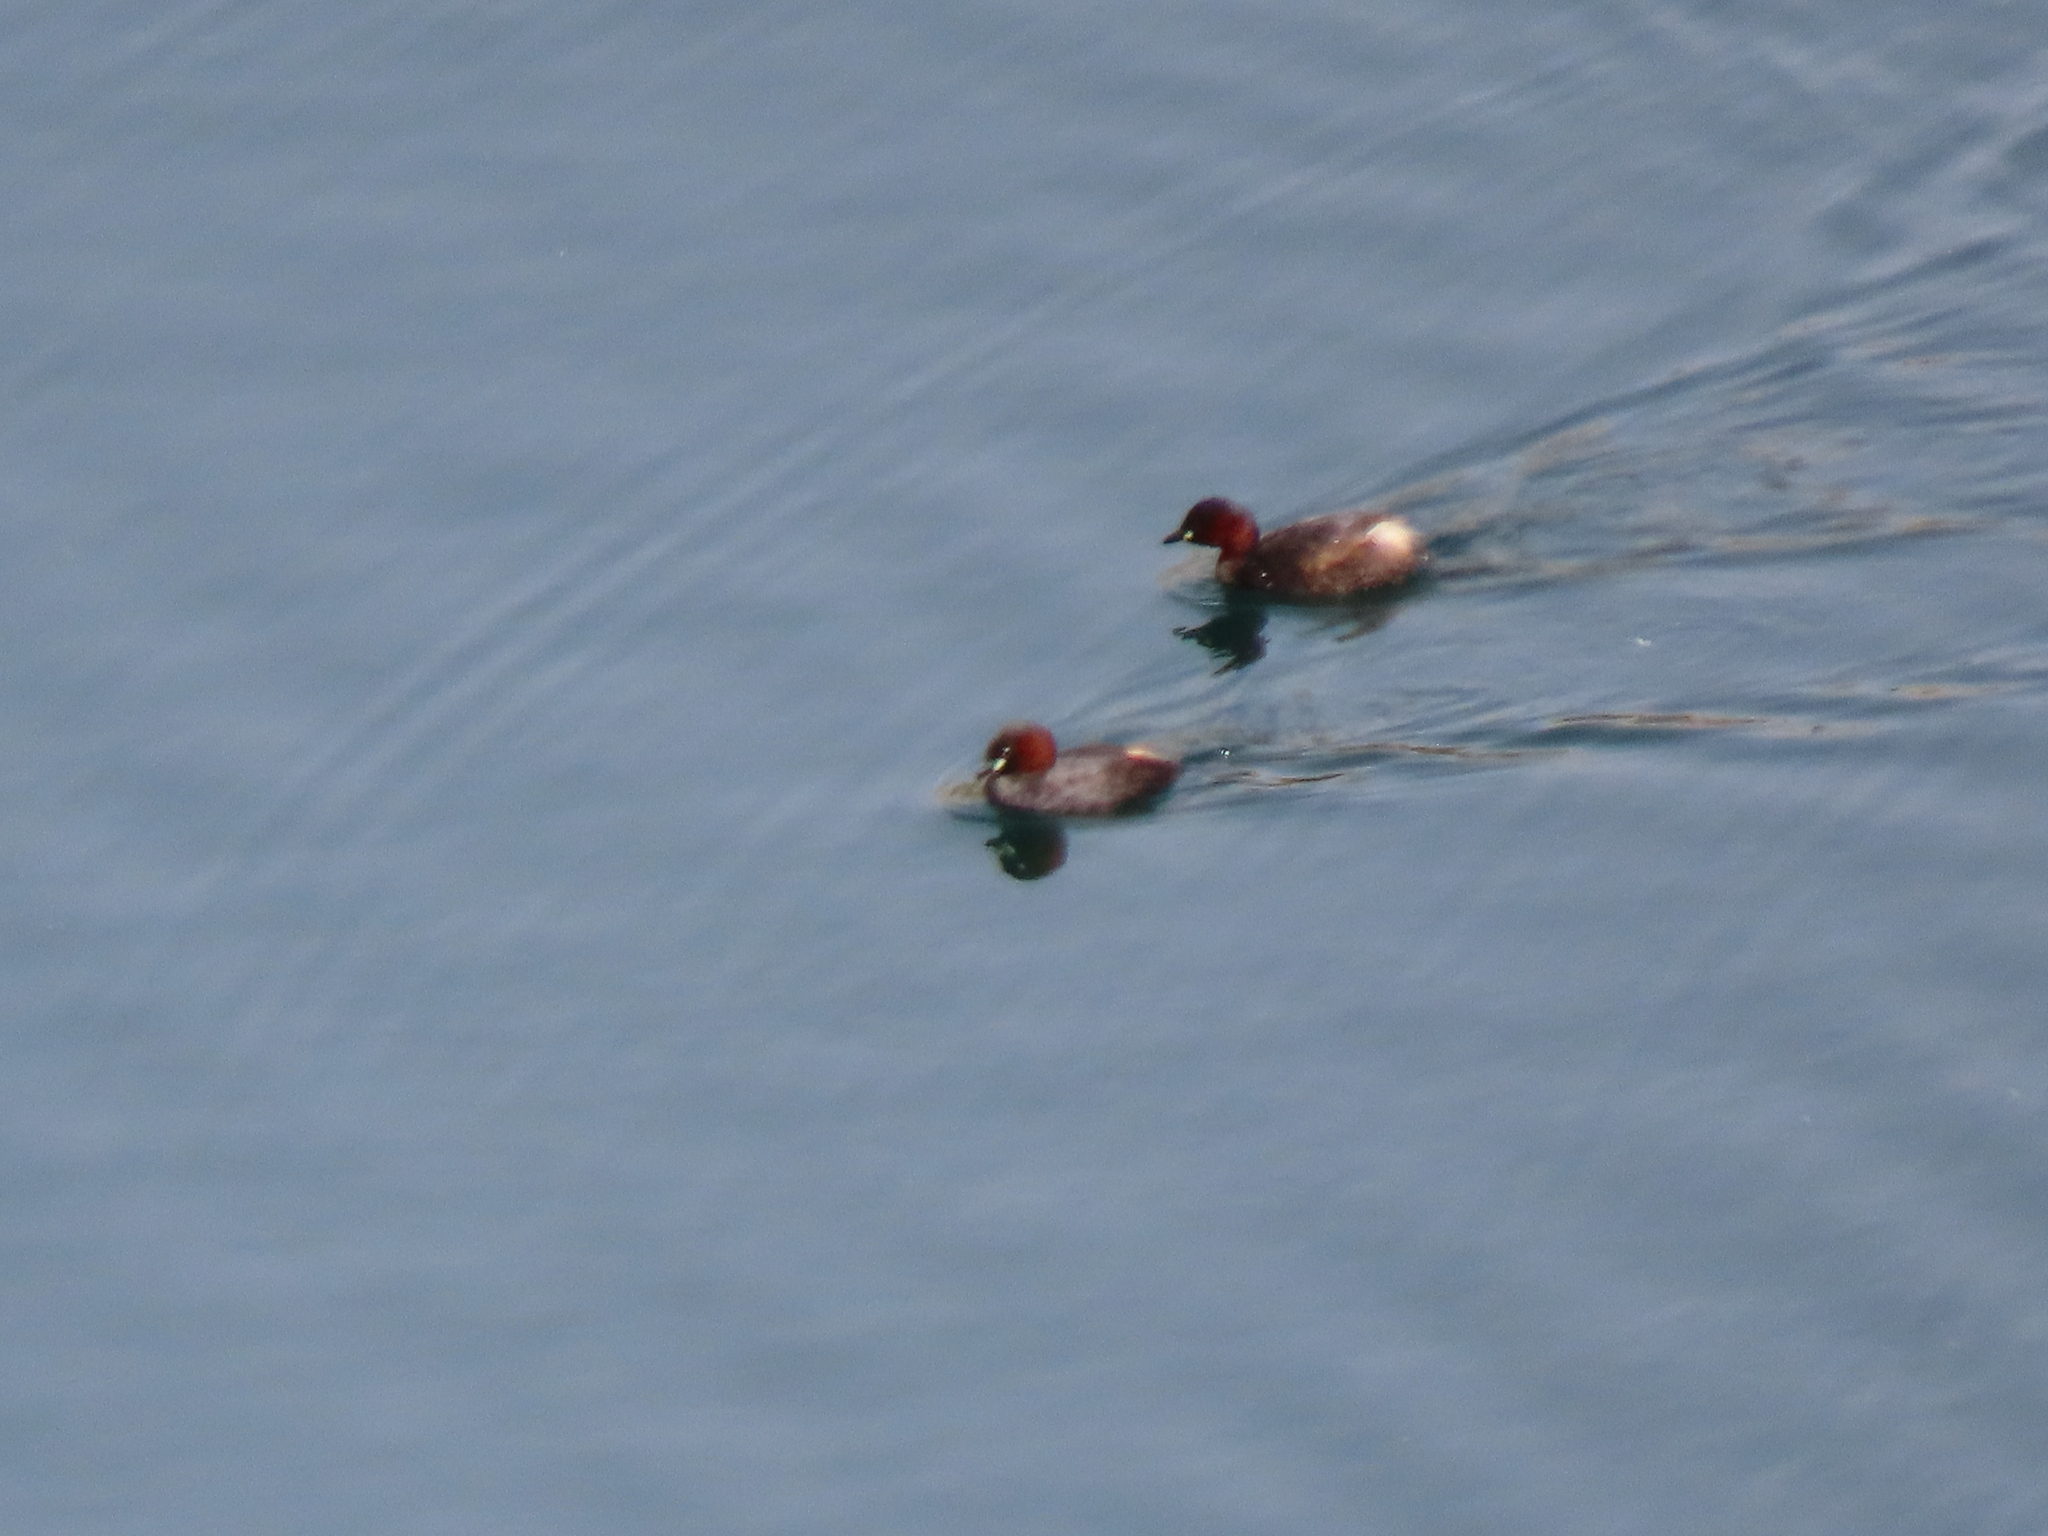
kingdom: Animalia
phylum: Chordata
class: Aves
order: Podicipediformes
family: Podicipedidae
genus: Tachybaptus
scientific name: Tachybaptus ruficollis
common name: Little grebe
